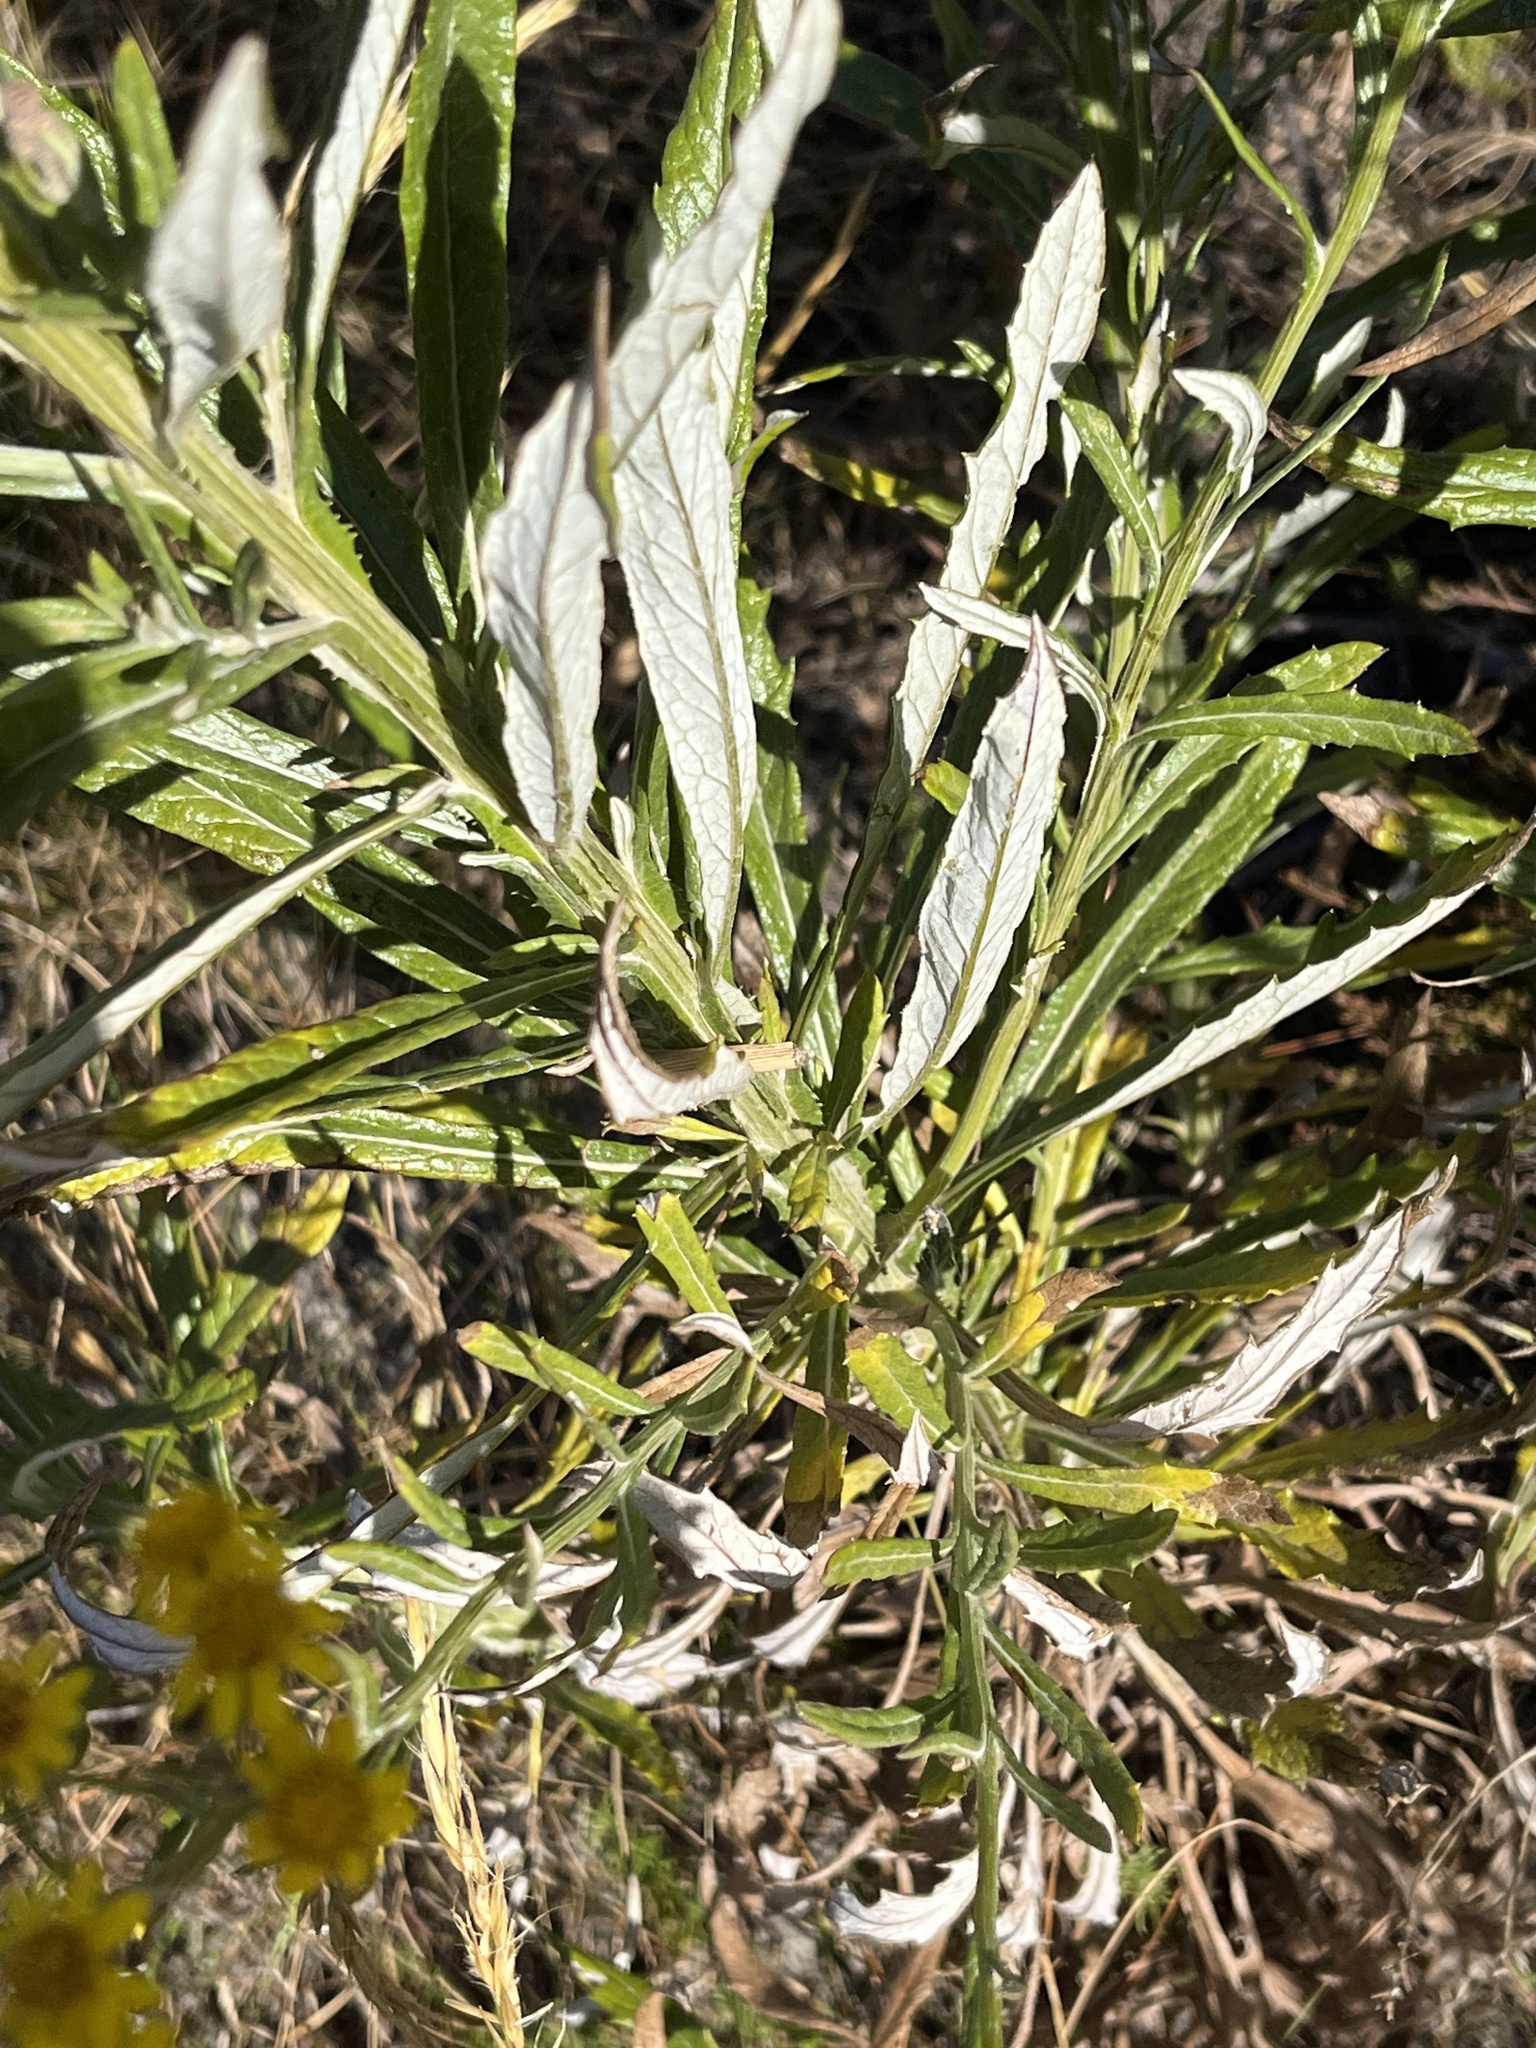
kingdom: Plantae
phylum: Tracheophyta
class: Magnoliopsida
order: Asterales
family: Asteraceae
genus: Senecio
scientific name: Senecio pterophorus
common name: Shoddy ragwort
